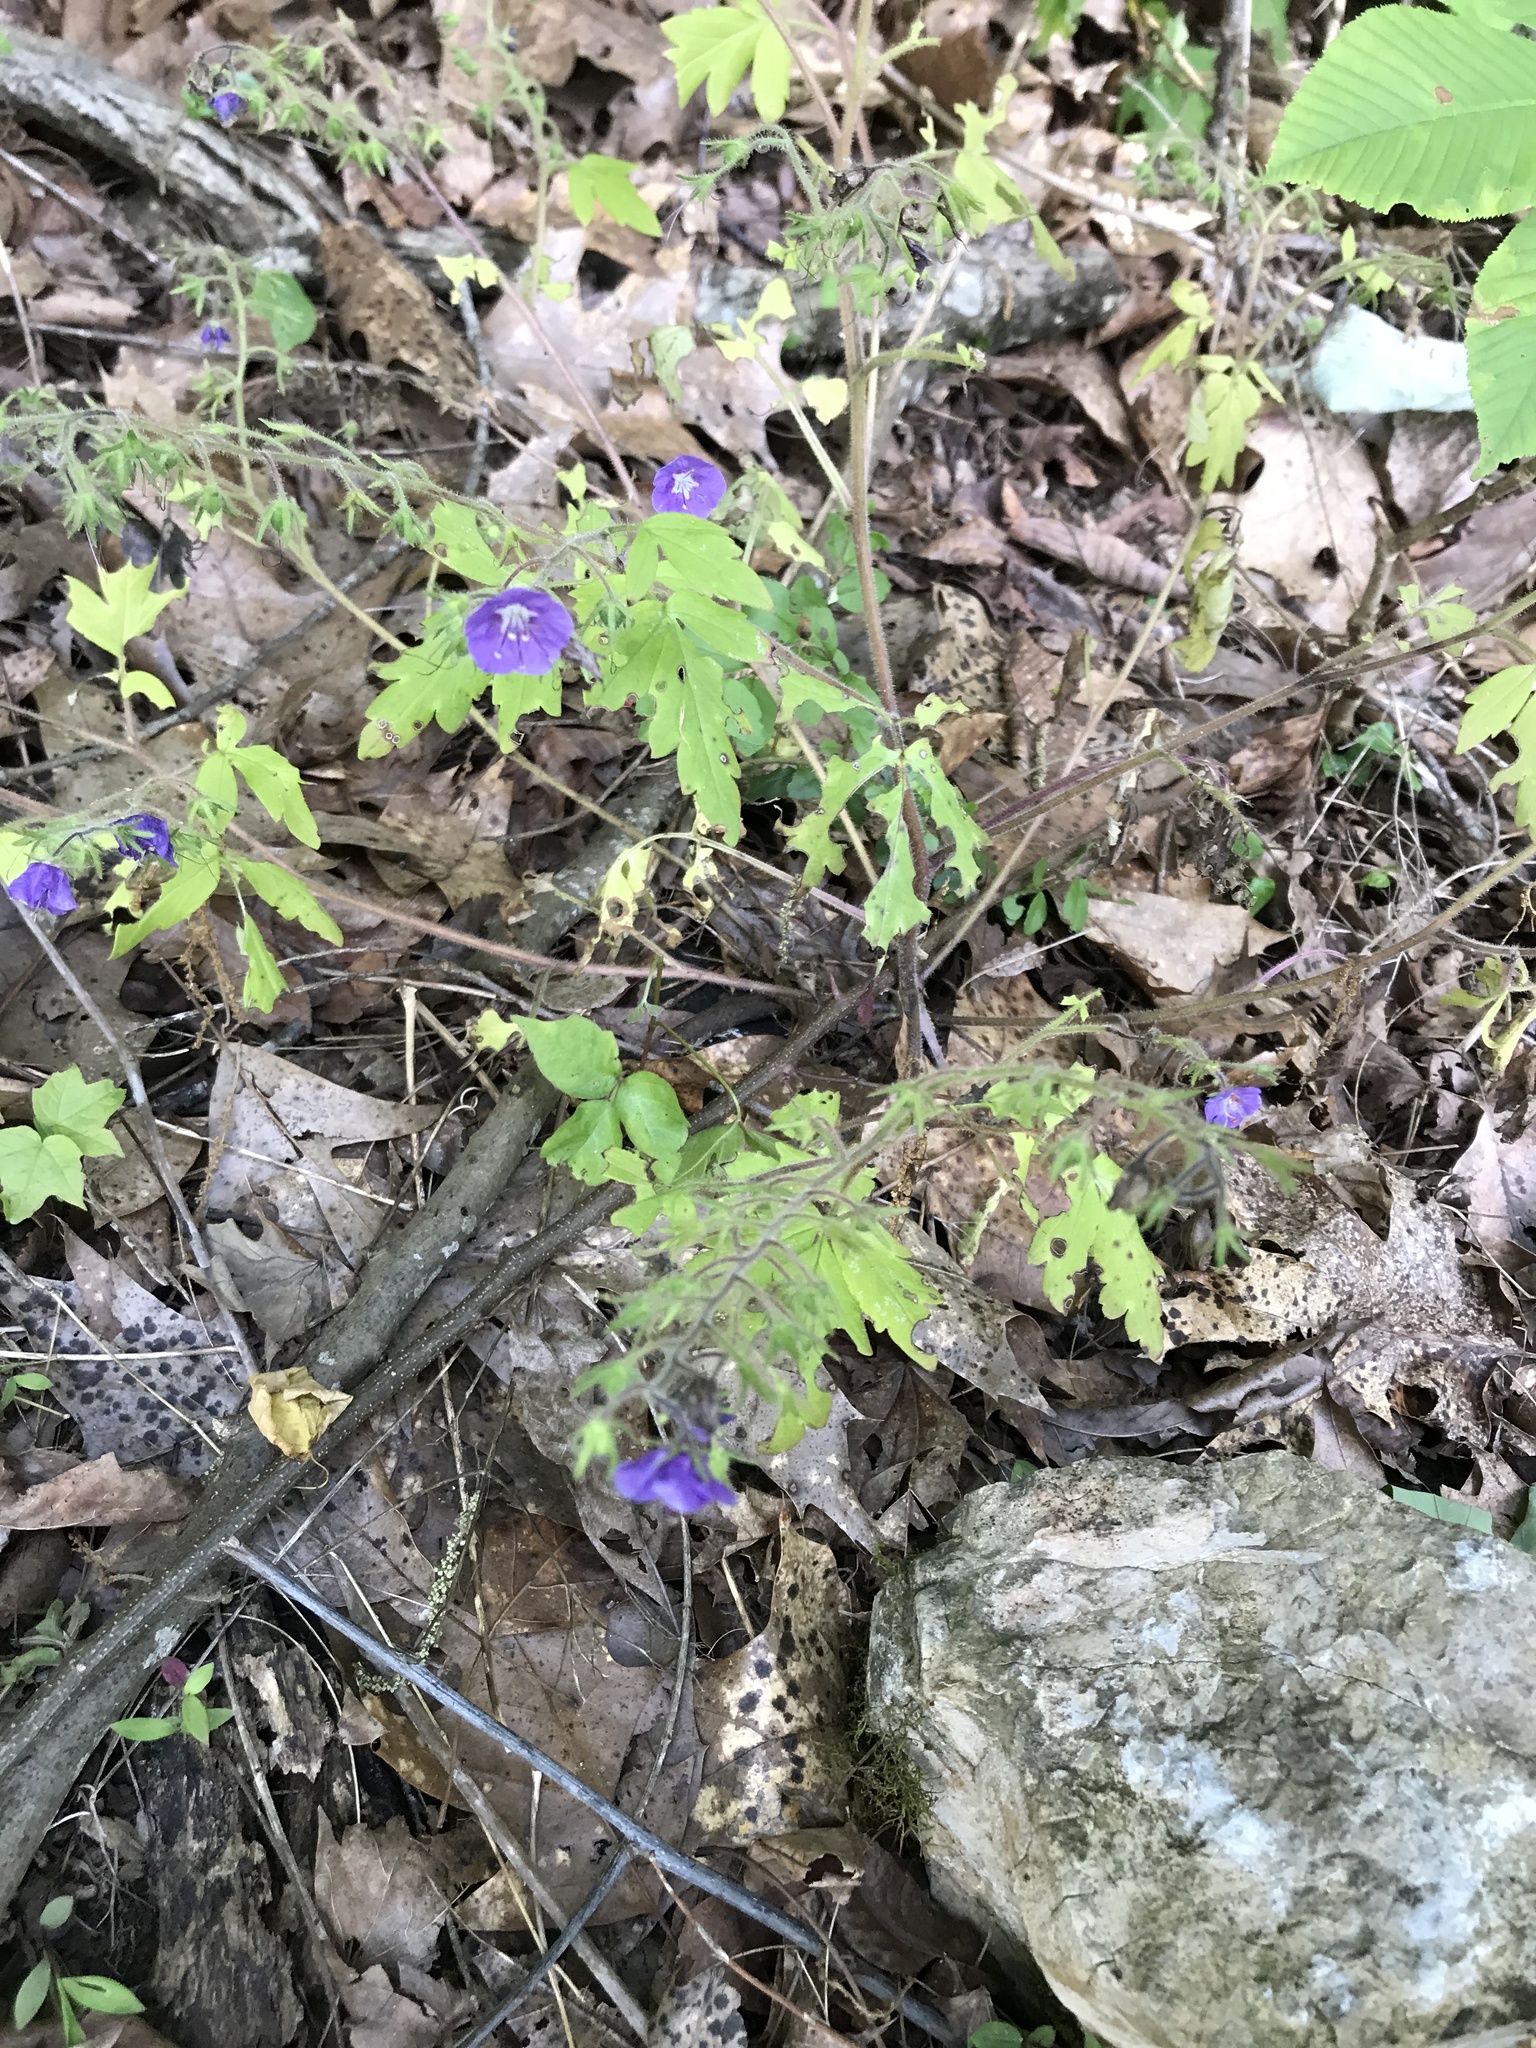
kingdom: Plantae
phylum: Tracheophyta
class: Magnoliopsida
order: Boraginales
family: Hydrophyllaceae
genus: Phacelia
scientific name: Phacelia bipinnatifida
